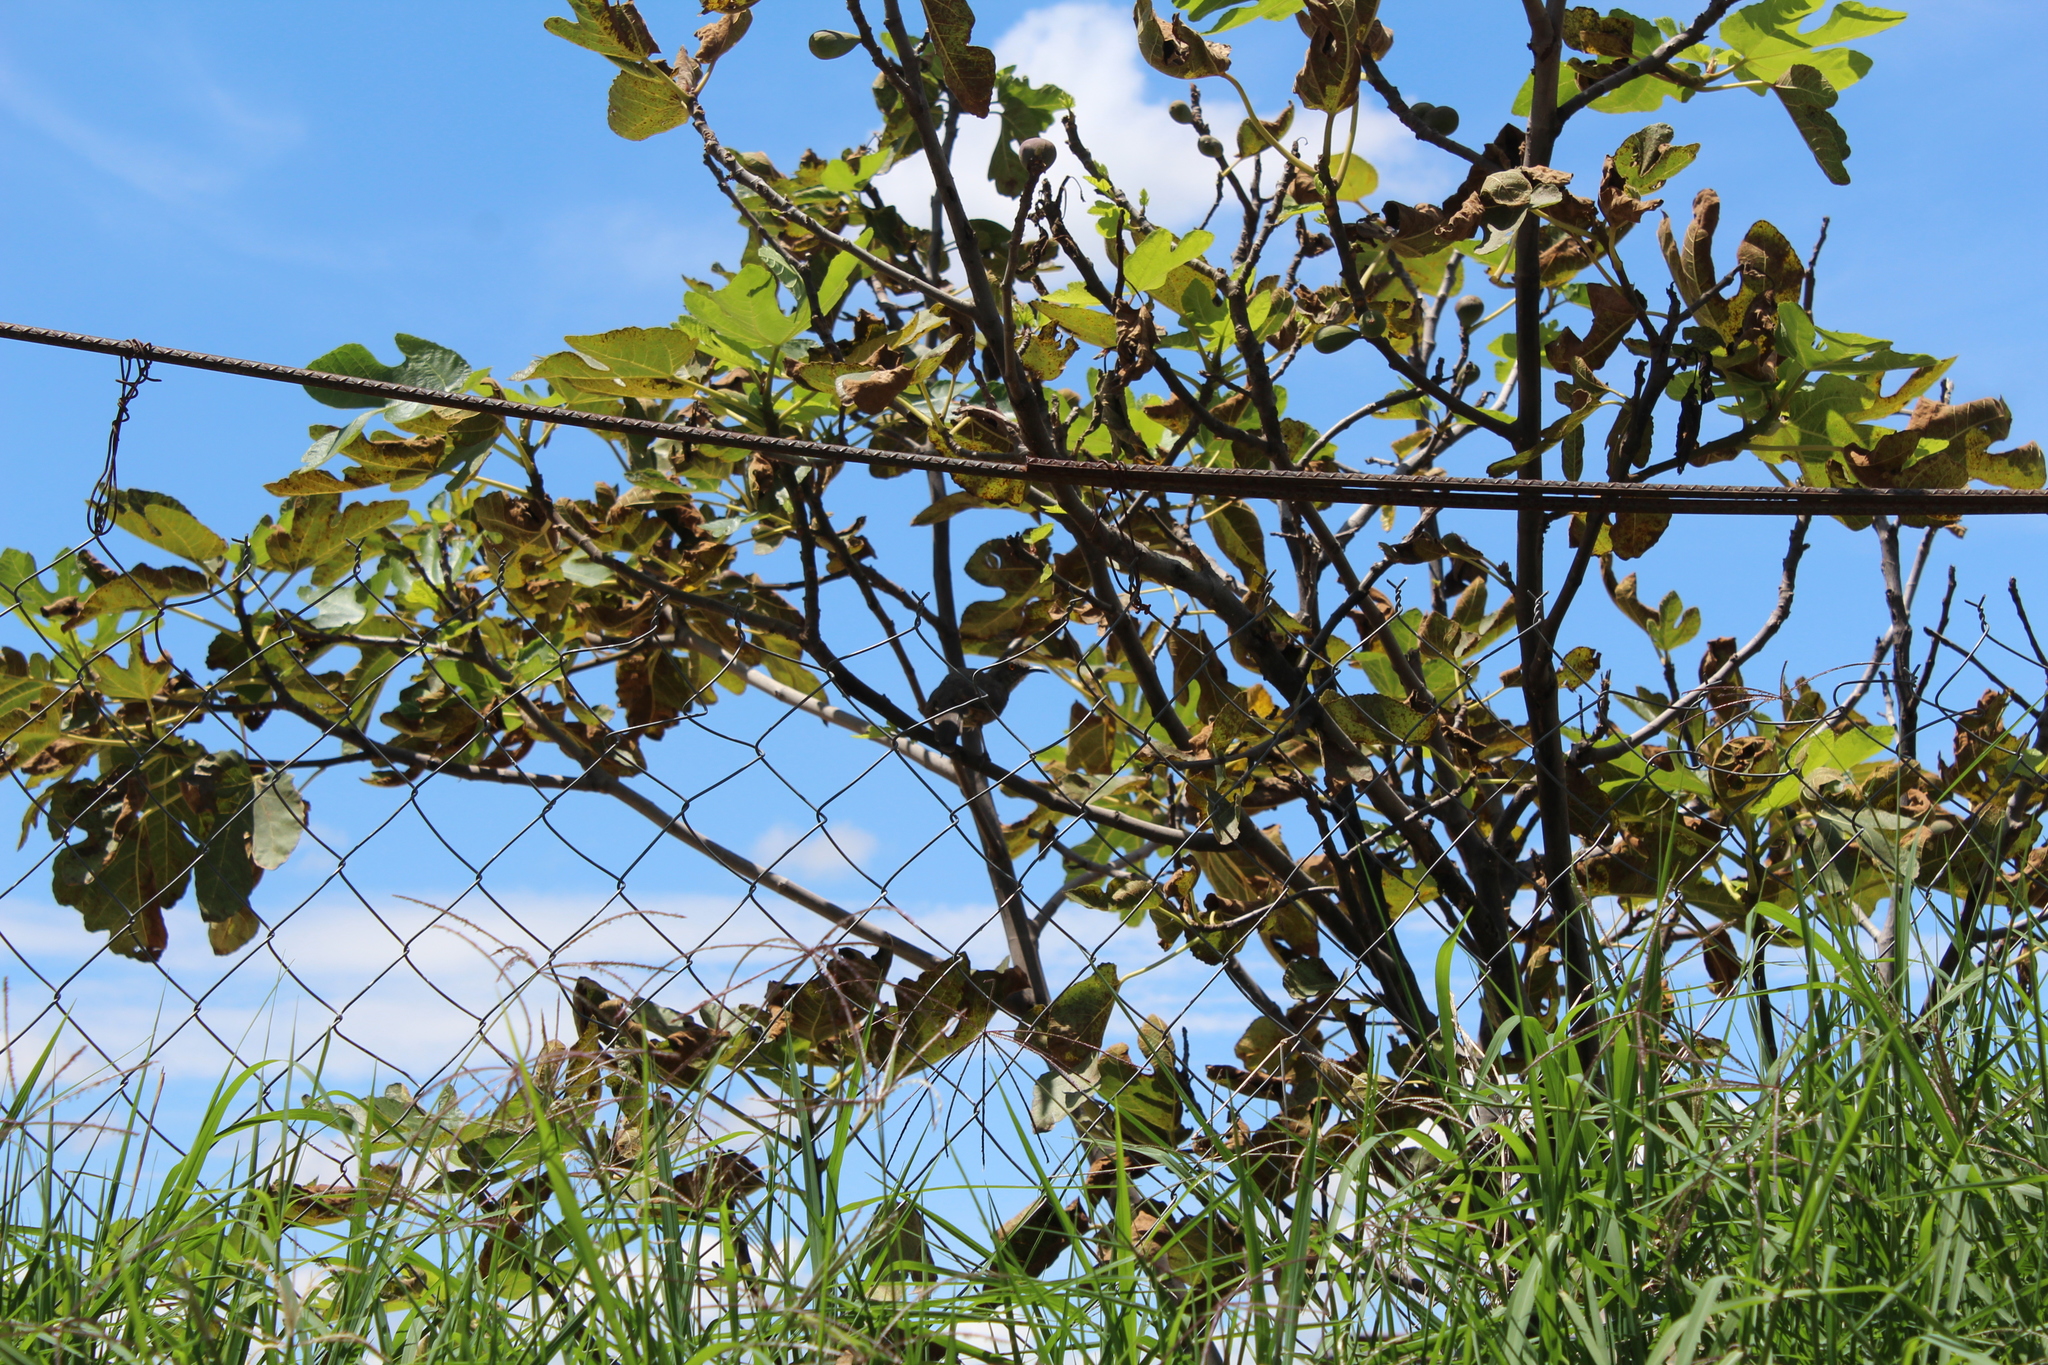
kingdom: Animalia
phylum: Chordata
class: Aves
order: Passeriformes
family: Mimidae
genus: Toxostoma
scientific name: Toxostoma curvirostre
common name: Curve-billed thrasher
